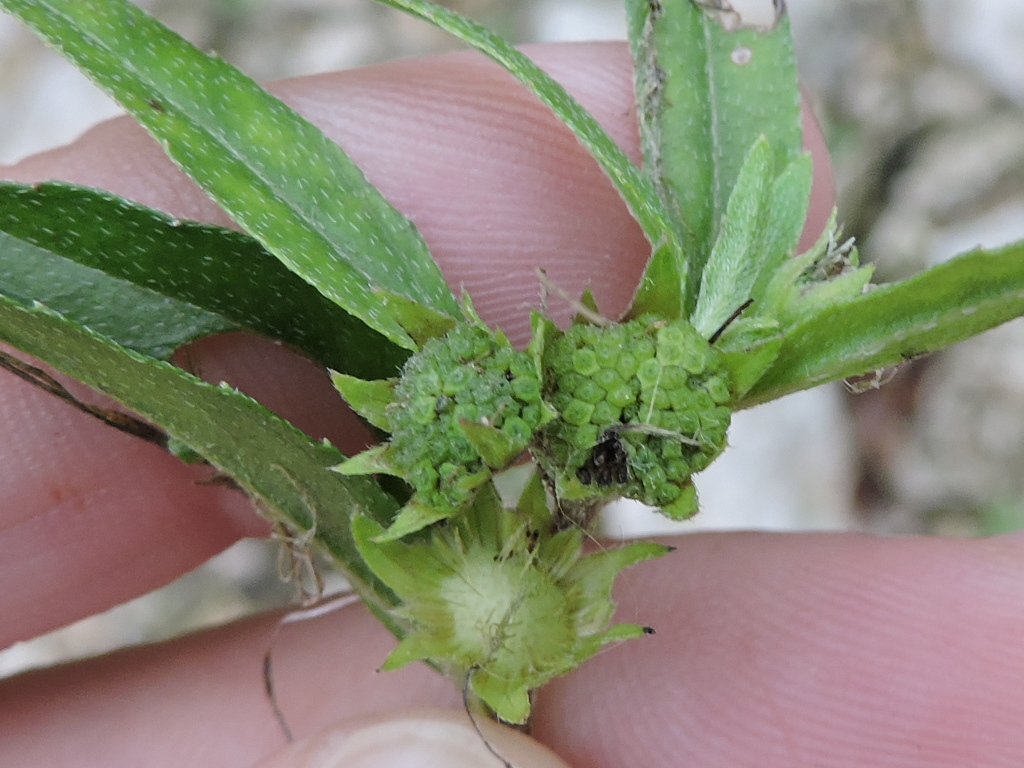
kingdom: Plantae
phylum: Tracheophyta
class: Magnoliopsida
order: Asterales
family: Asteraceae
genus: Eclipta
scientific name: Eclipta prostrata
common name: False daisy
